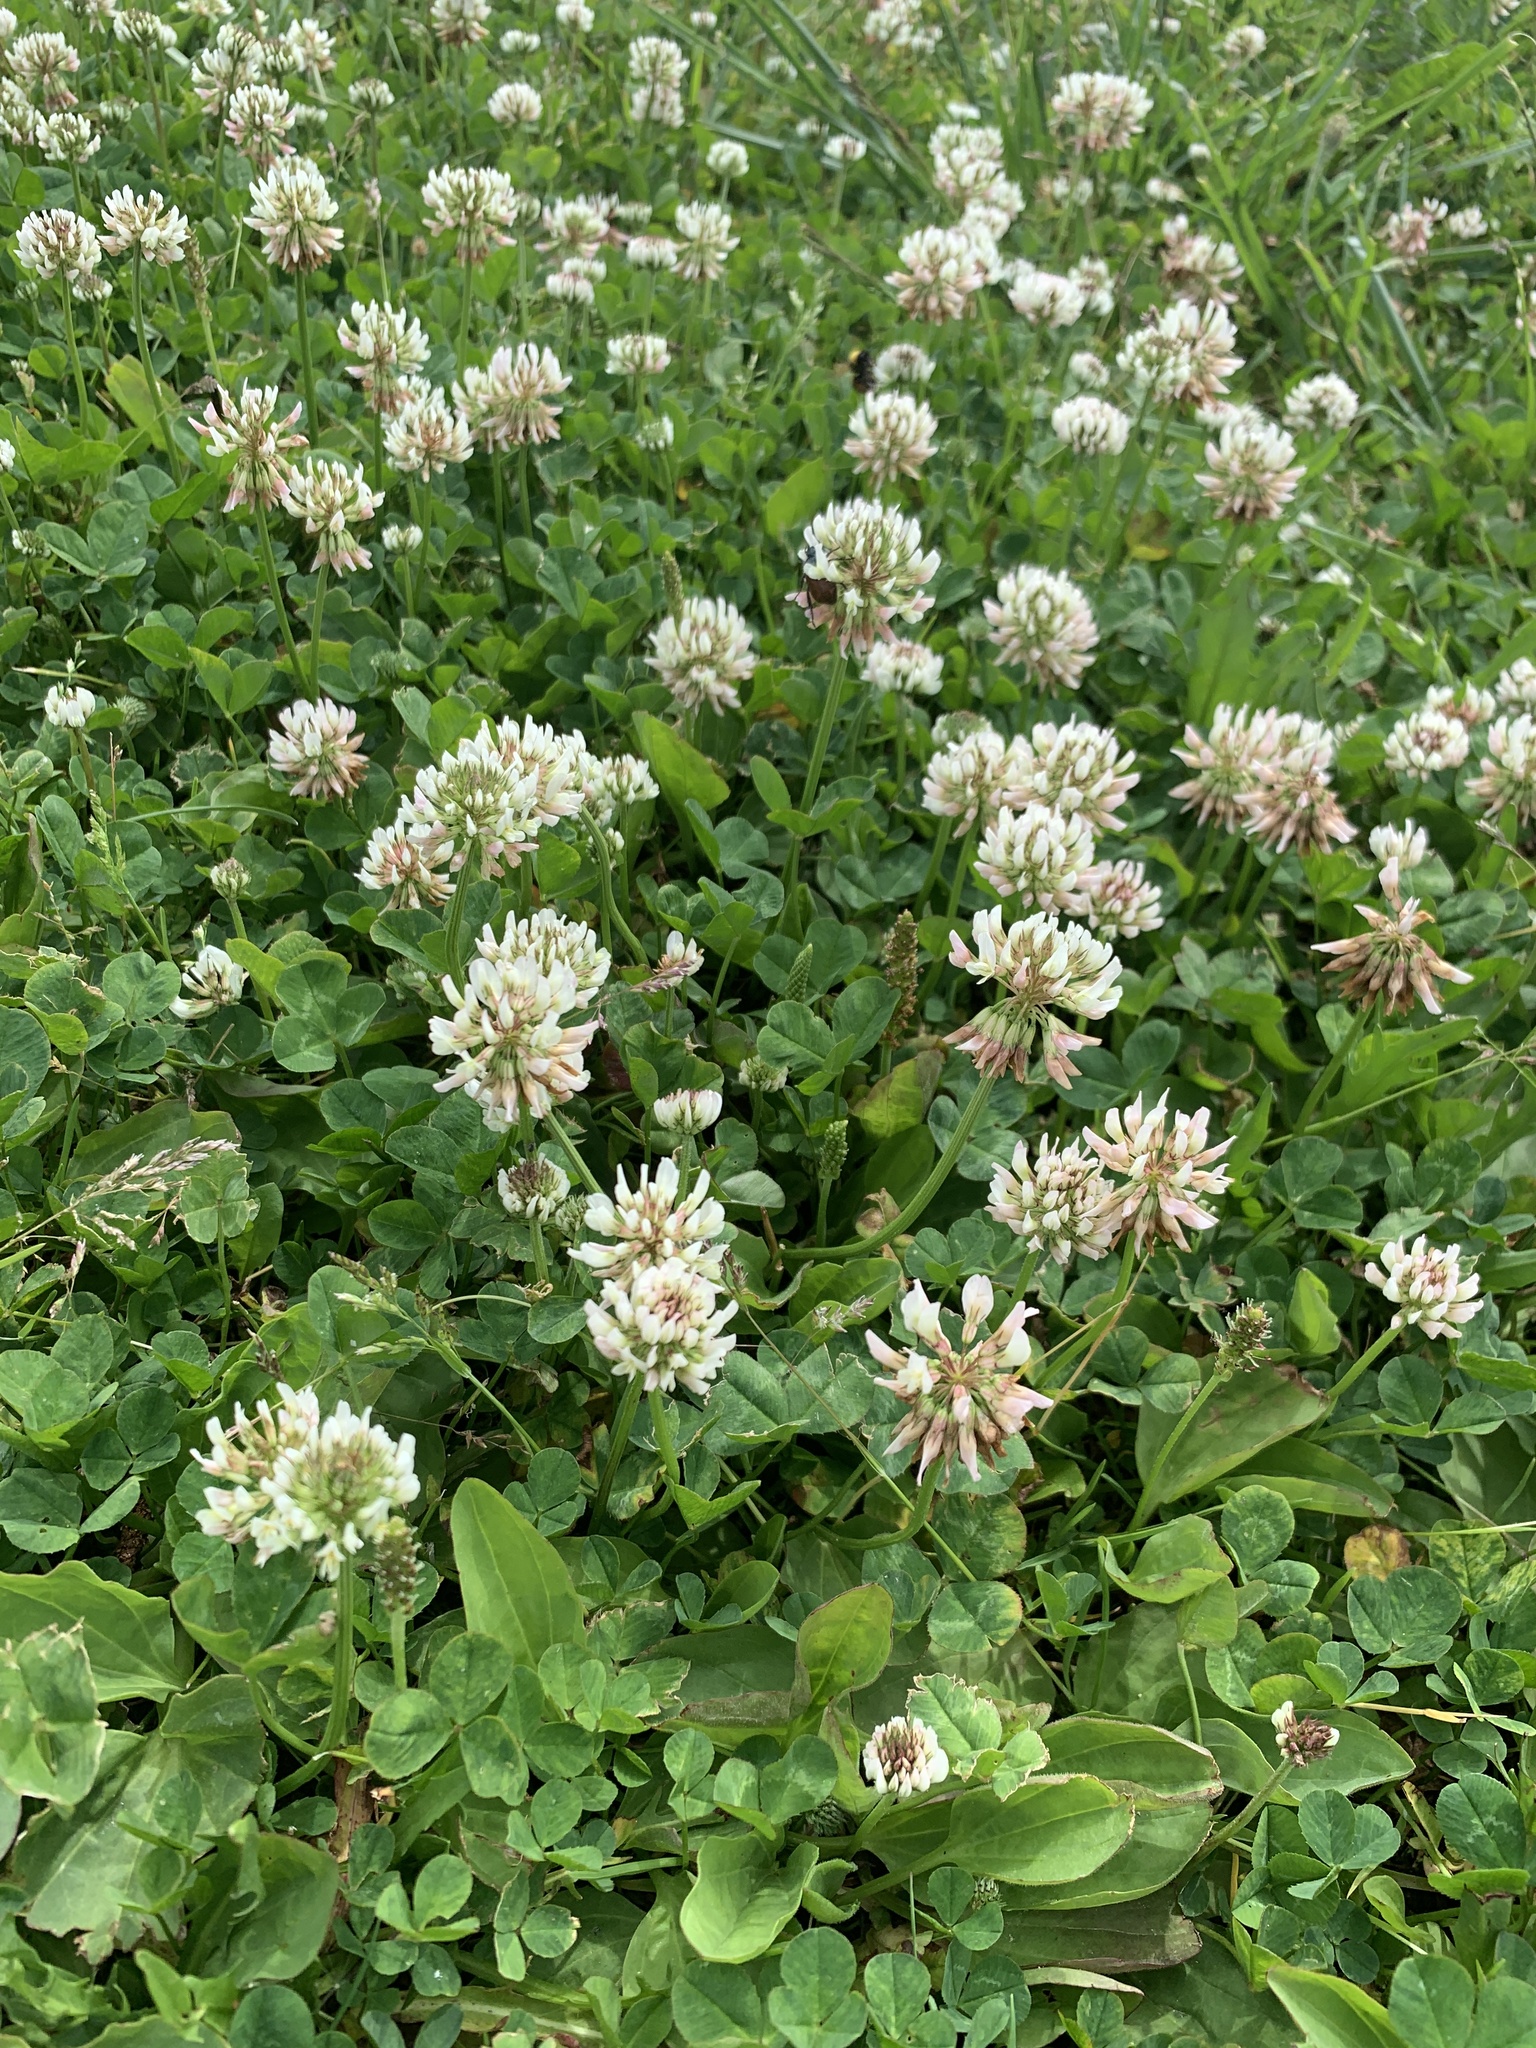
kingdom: Plantae
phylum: Tracheophyta
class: Magnoliopsida
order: Fabales
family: Fabaceae
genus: Trifolium
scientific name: Trifolium repens
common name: White clover
